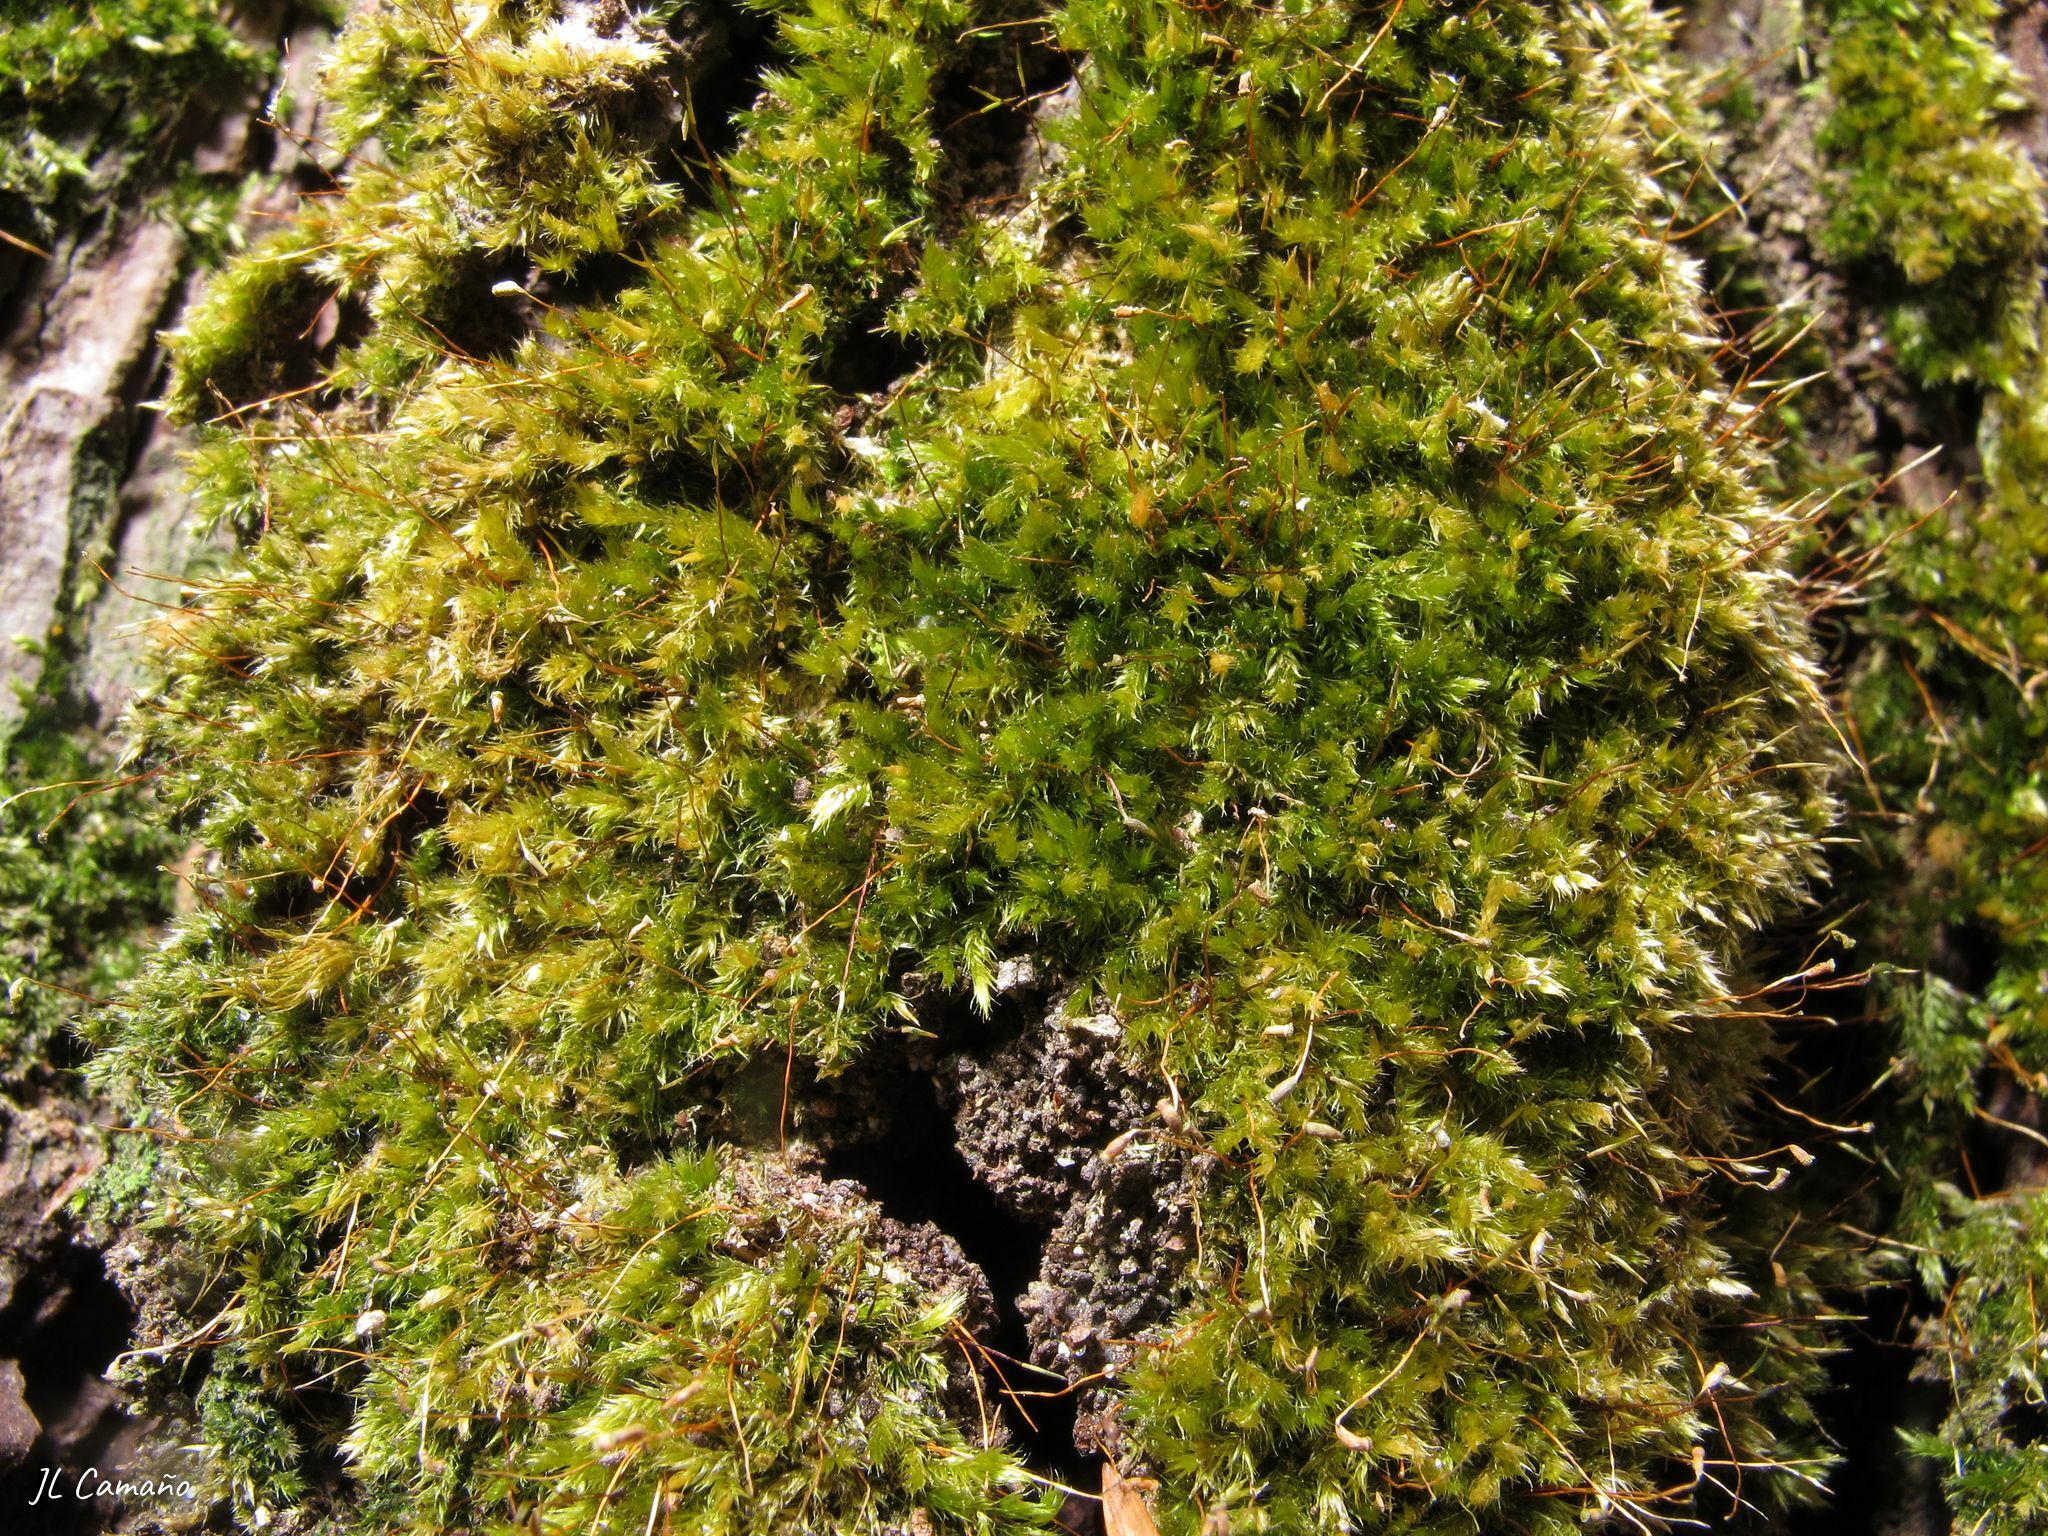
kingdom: Plantae
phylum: Bryophyta
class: Bryopsida
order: Hypnales
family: Sematophyllaceae
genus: Sematophyllum
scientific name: Sematophyllum substrumulosum
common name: Bark signal-moss
